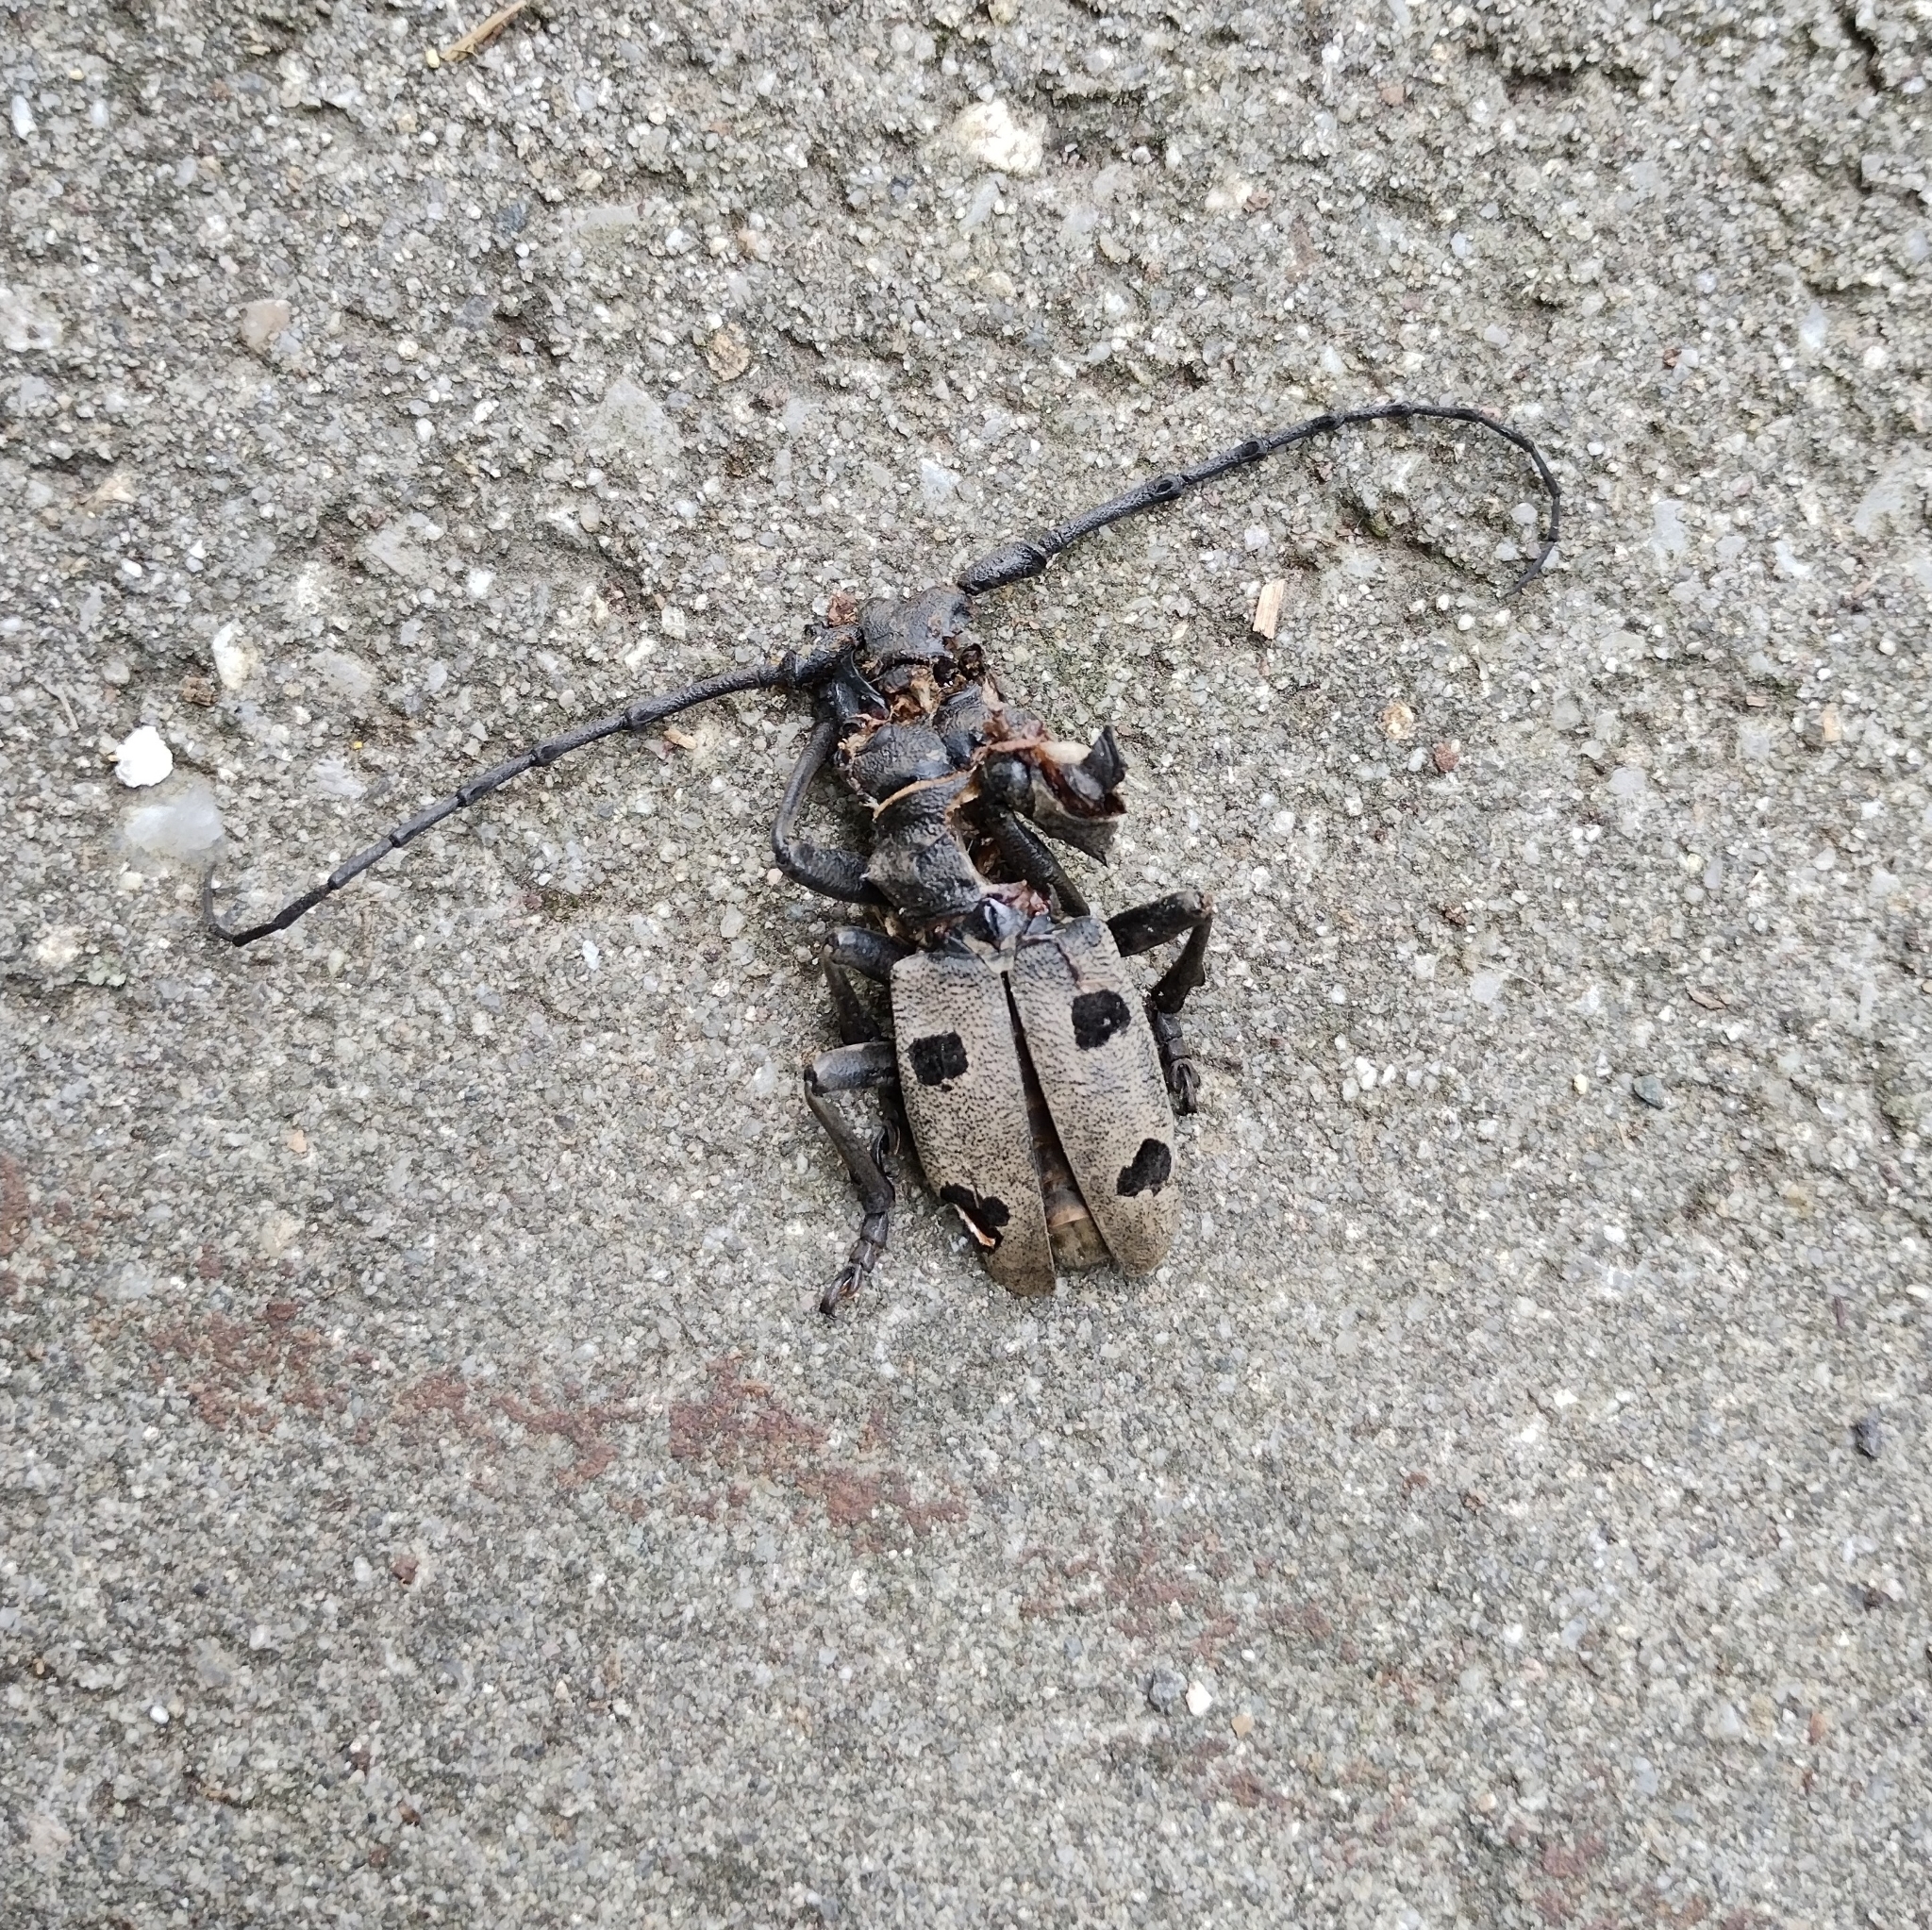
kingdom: Animalia
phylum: Arthropoda
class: Insecta
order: Coleoptera
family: Cerambycidae
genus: Morimus
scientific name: Morimus funereus
